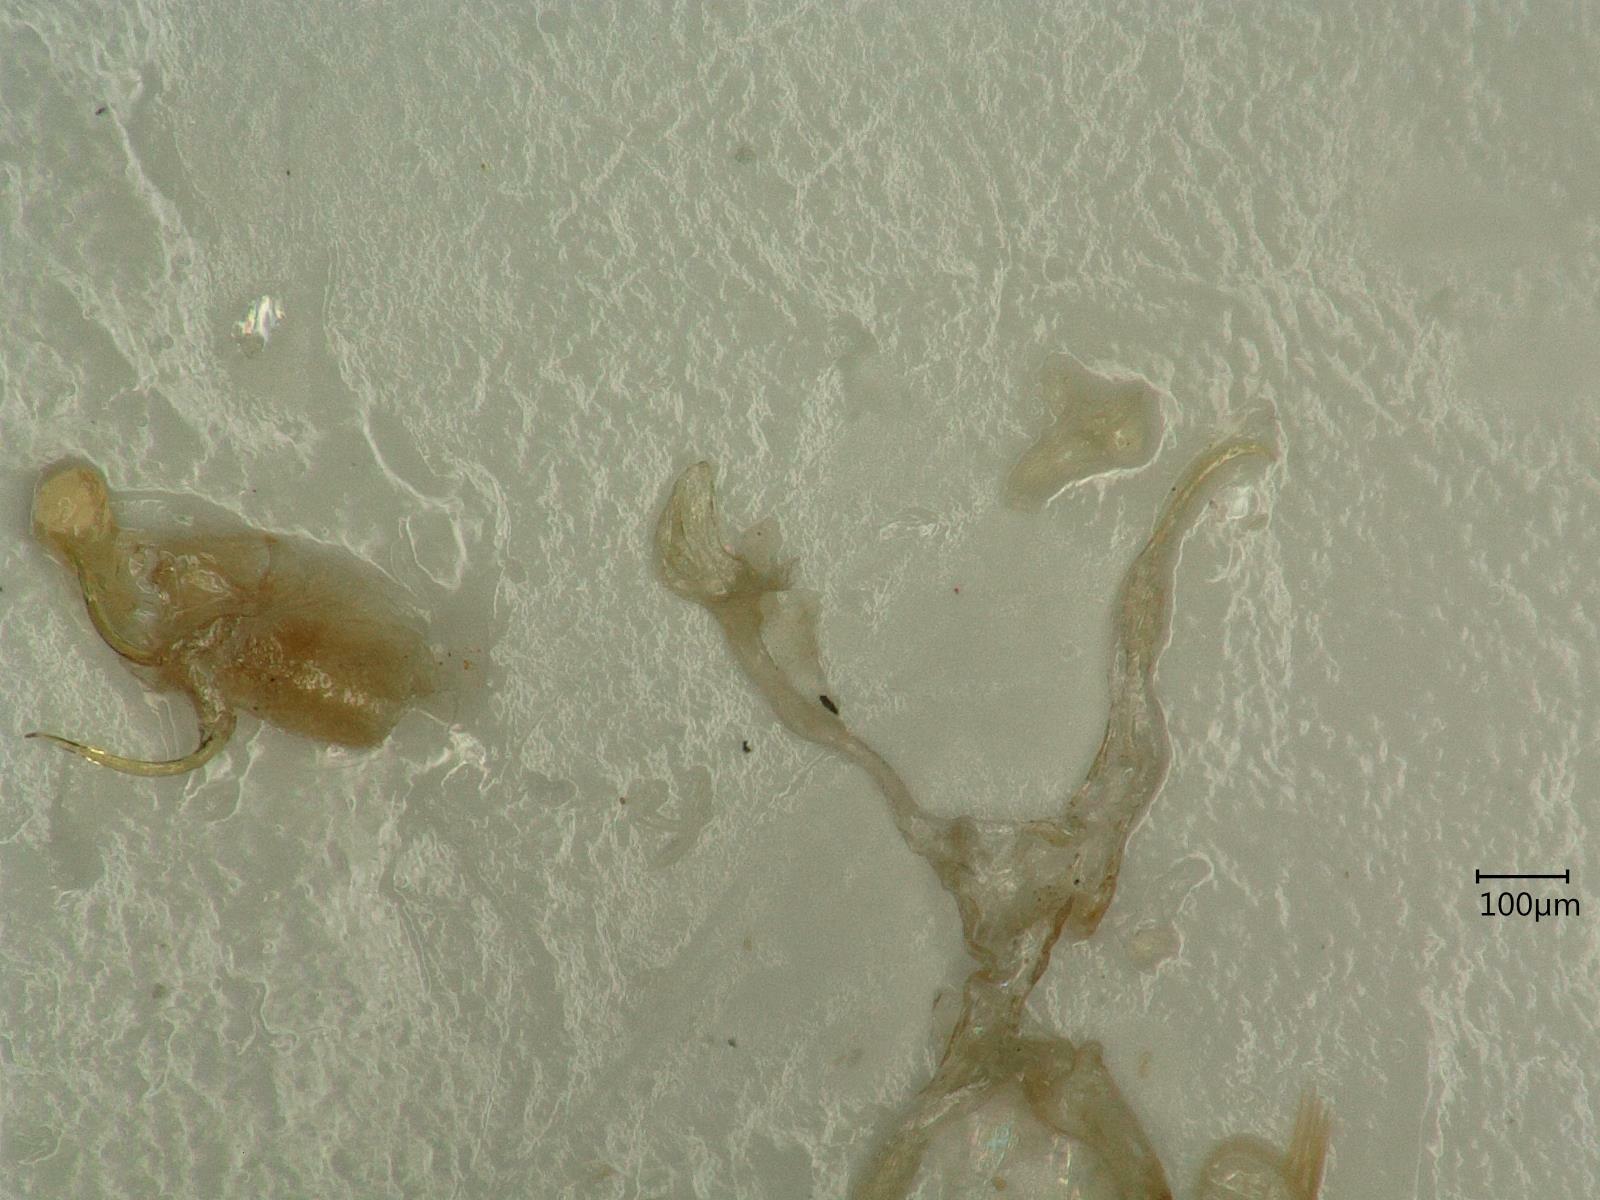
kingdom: Animalia
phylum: Arthropoda
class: Insecta
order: Hemiptera
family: Cicadellidae
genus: Kybos
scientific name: Kybos butleri
